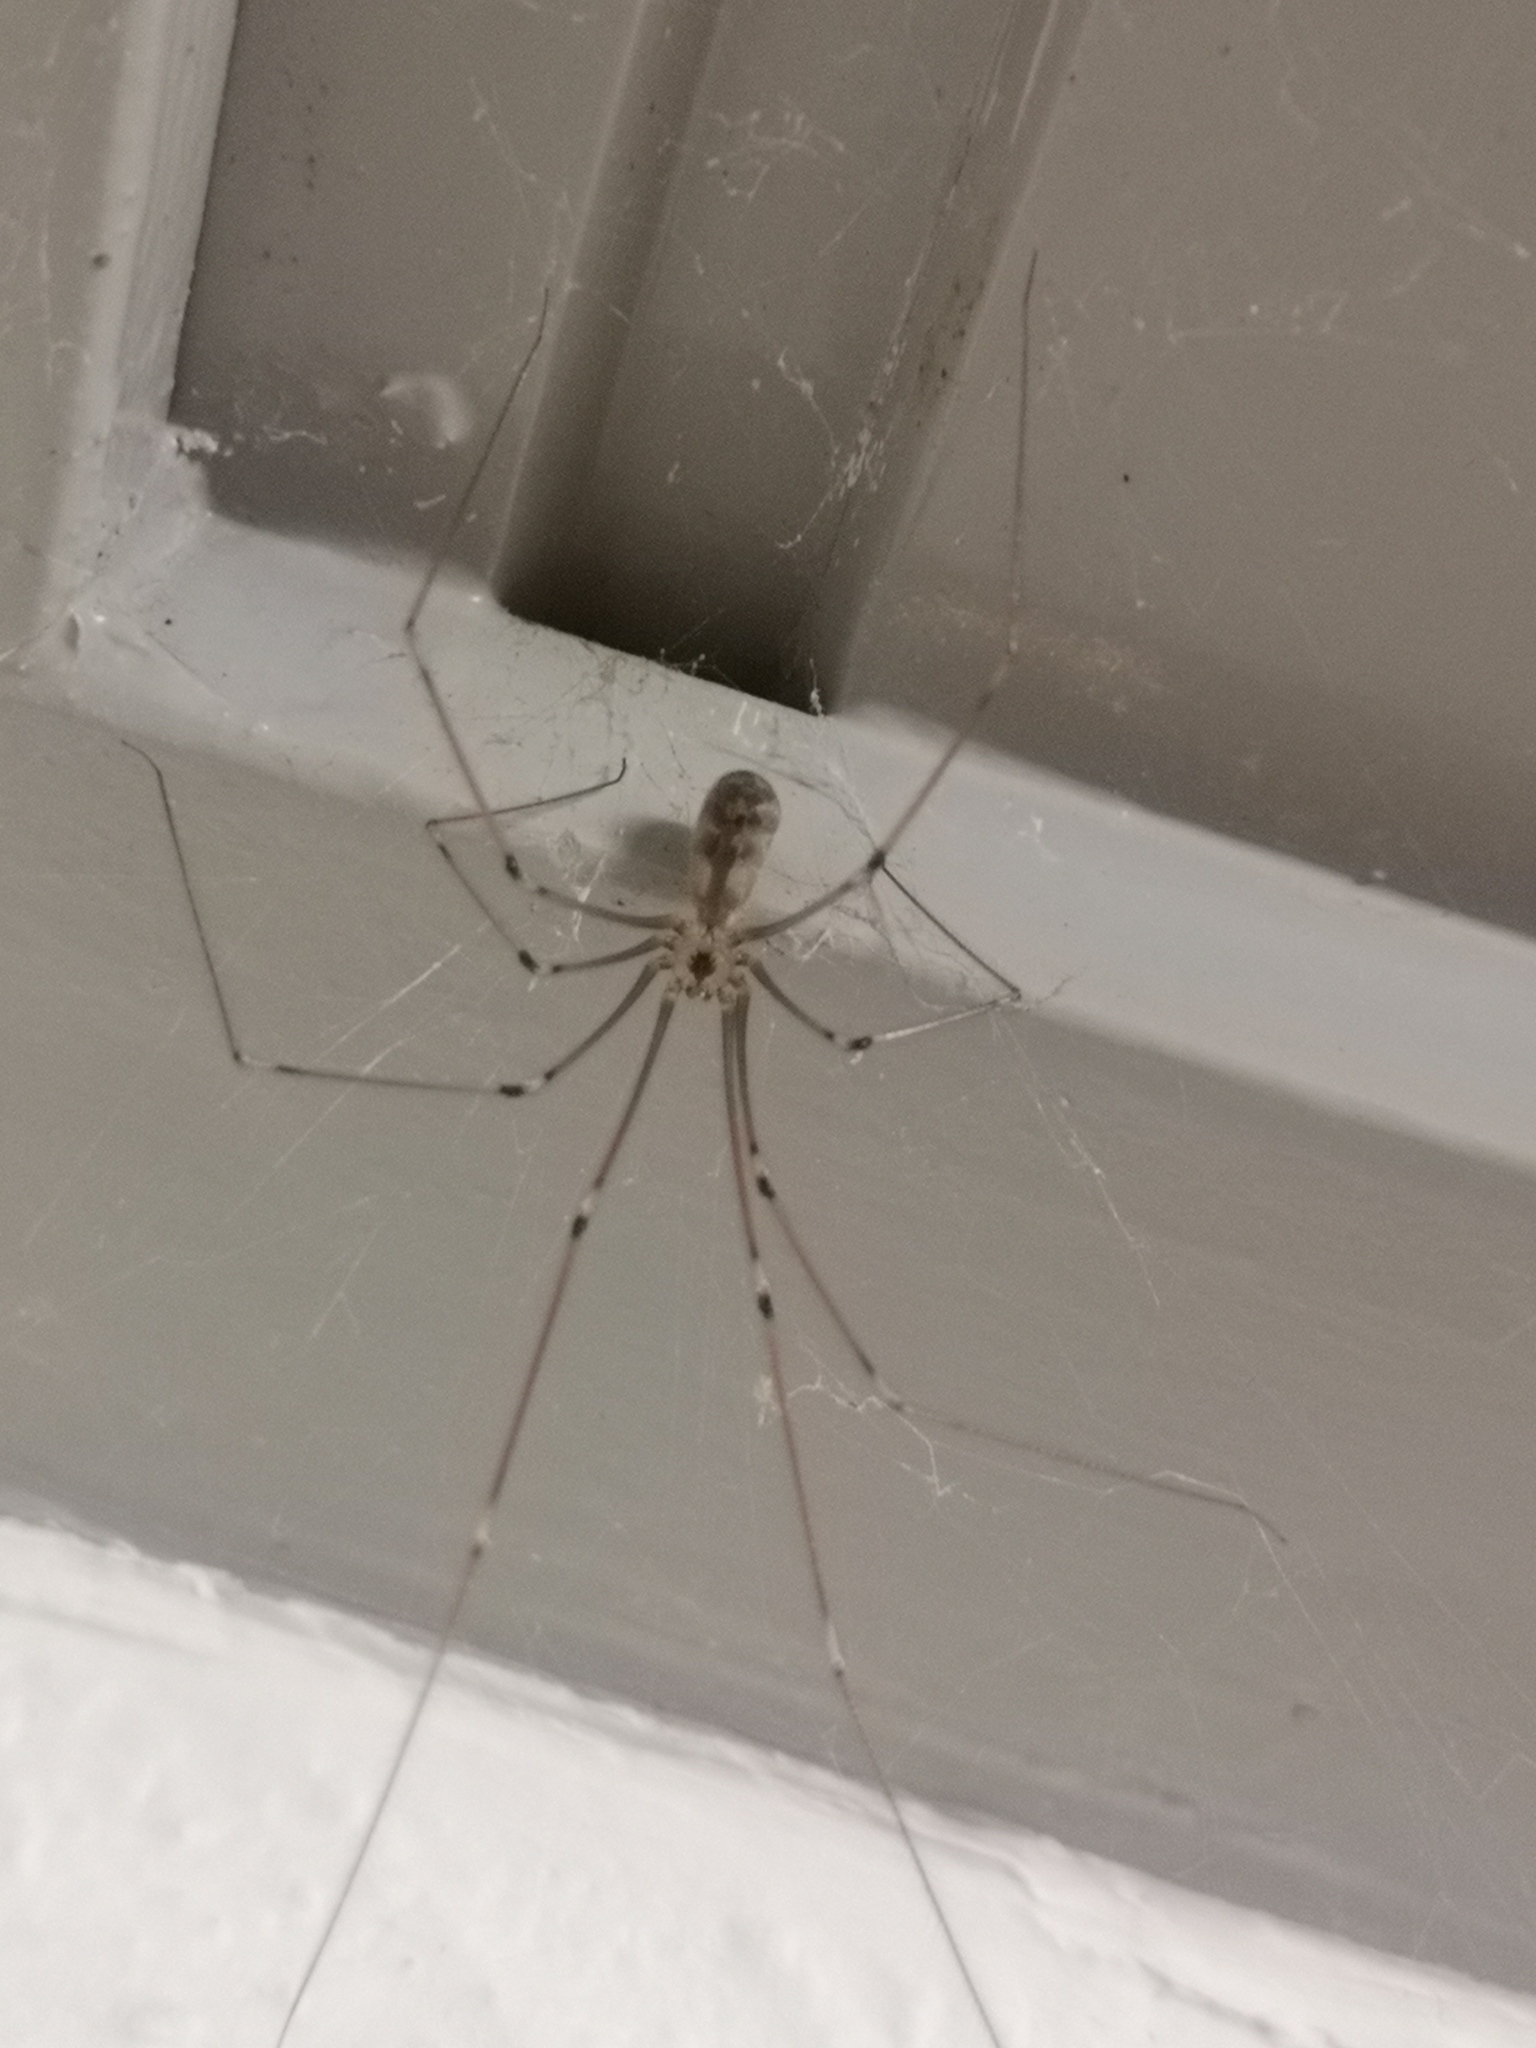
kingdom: Animalia
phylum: Arthropoda
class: Arachnida
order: Araneae
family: Pholcidae
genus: Pholcus
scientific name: Pholcus phalangioides
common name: Longbodied cellar spider
